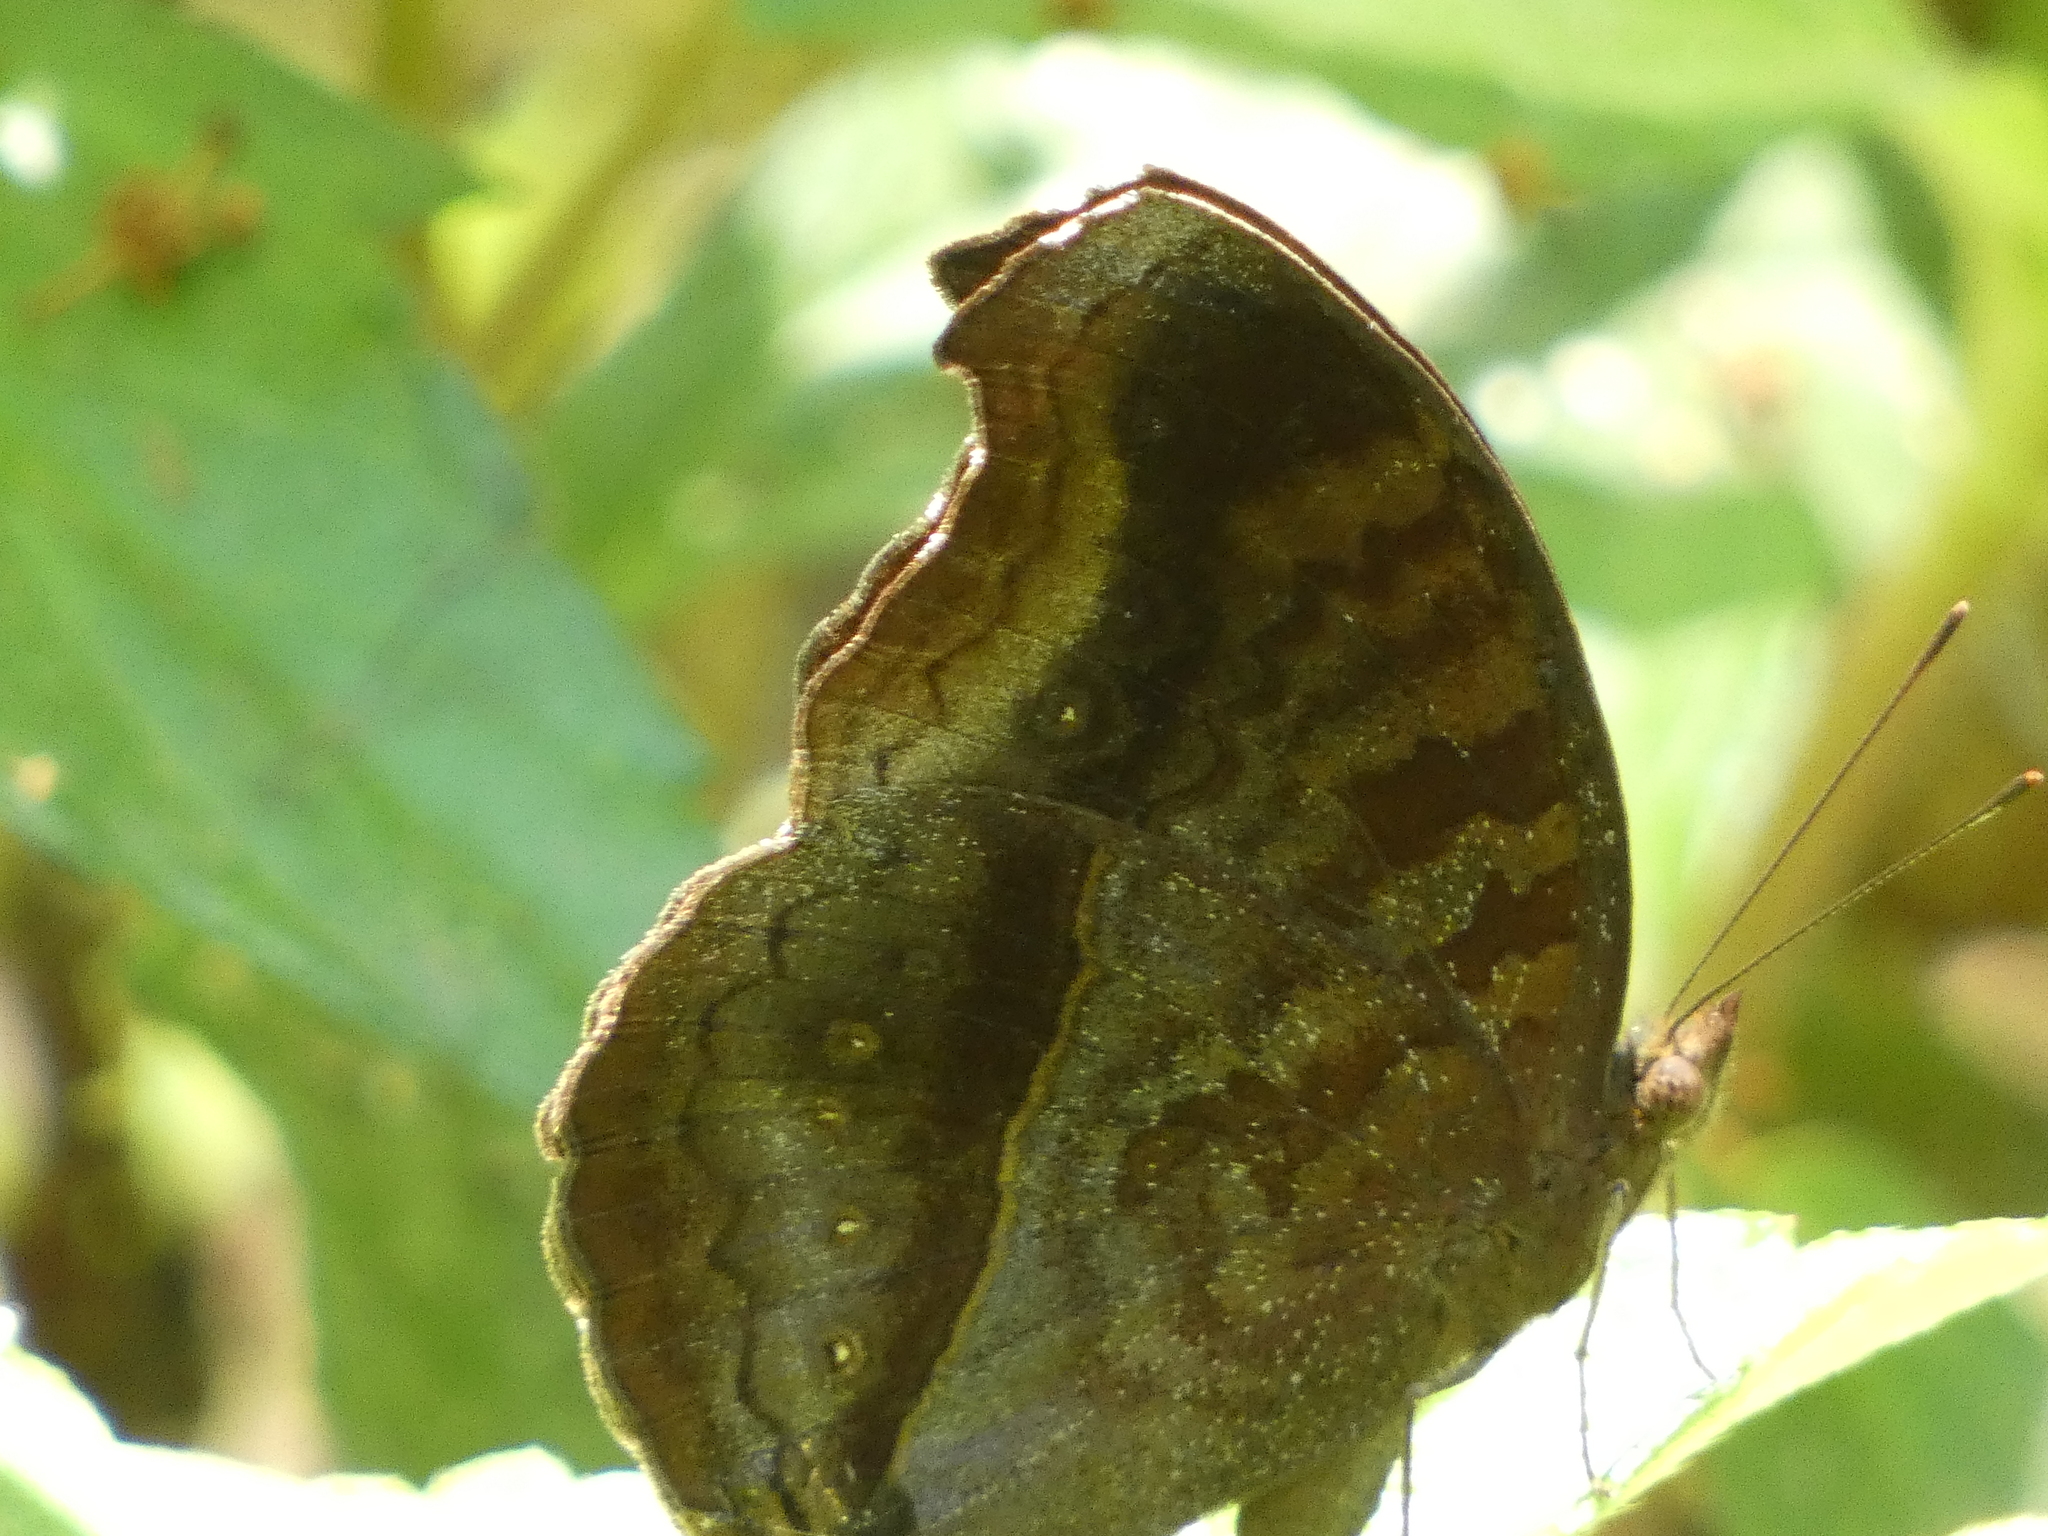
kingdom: Animalia
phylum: Arthropoda
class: Insecta
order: Lepidoptera
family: Nymphalidae
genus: Junonia
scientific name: Junonia iphita
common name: Chocolate pansy
